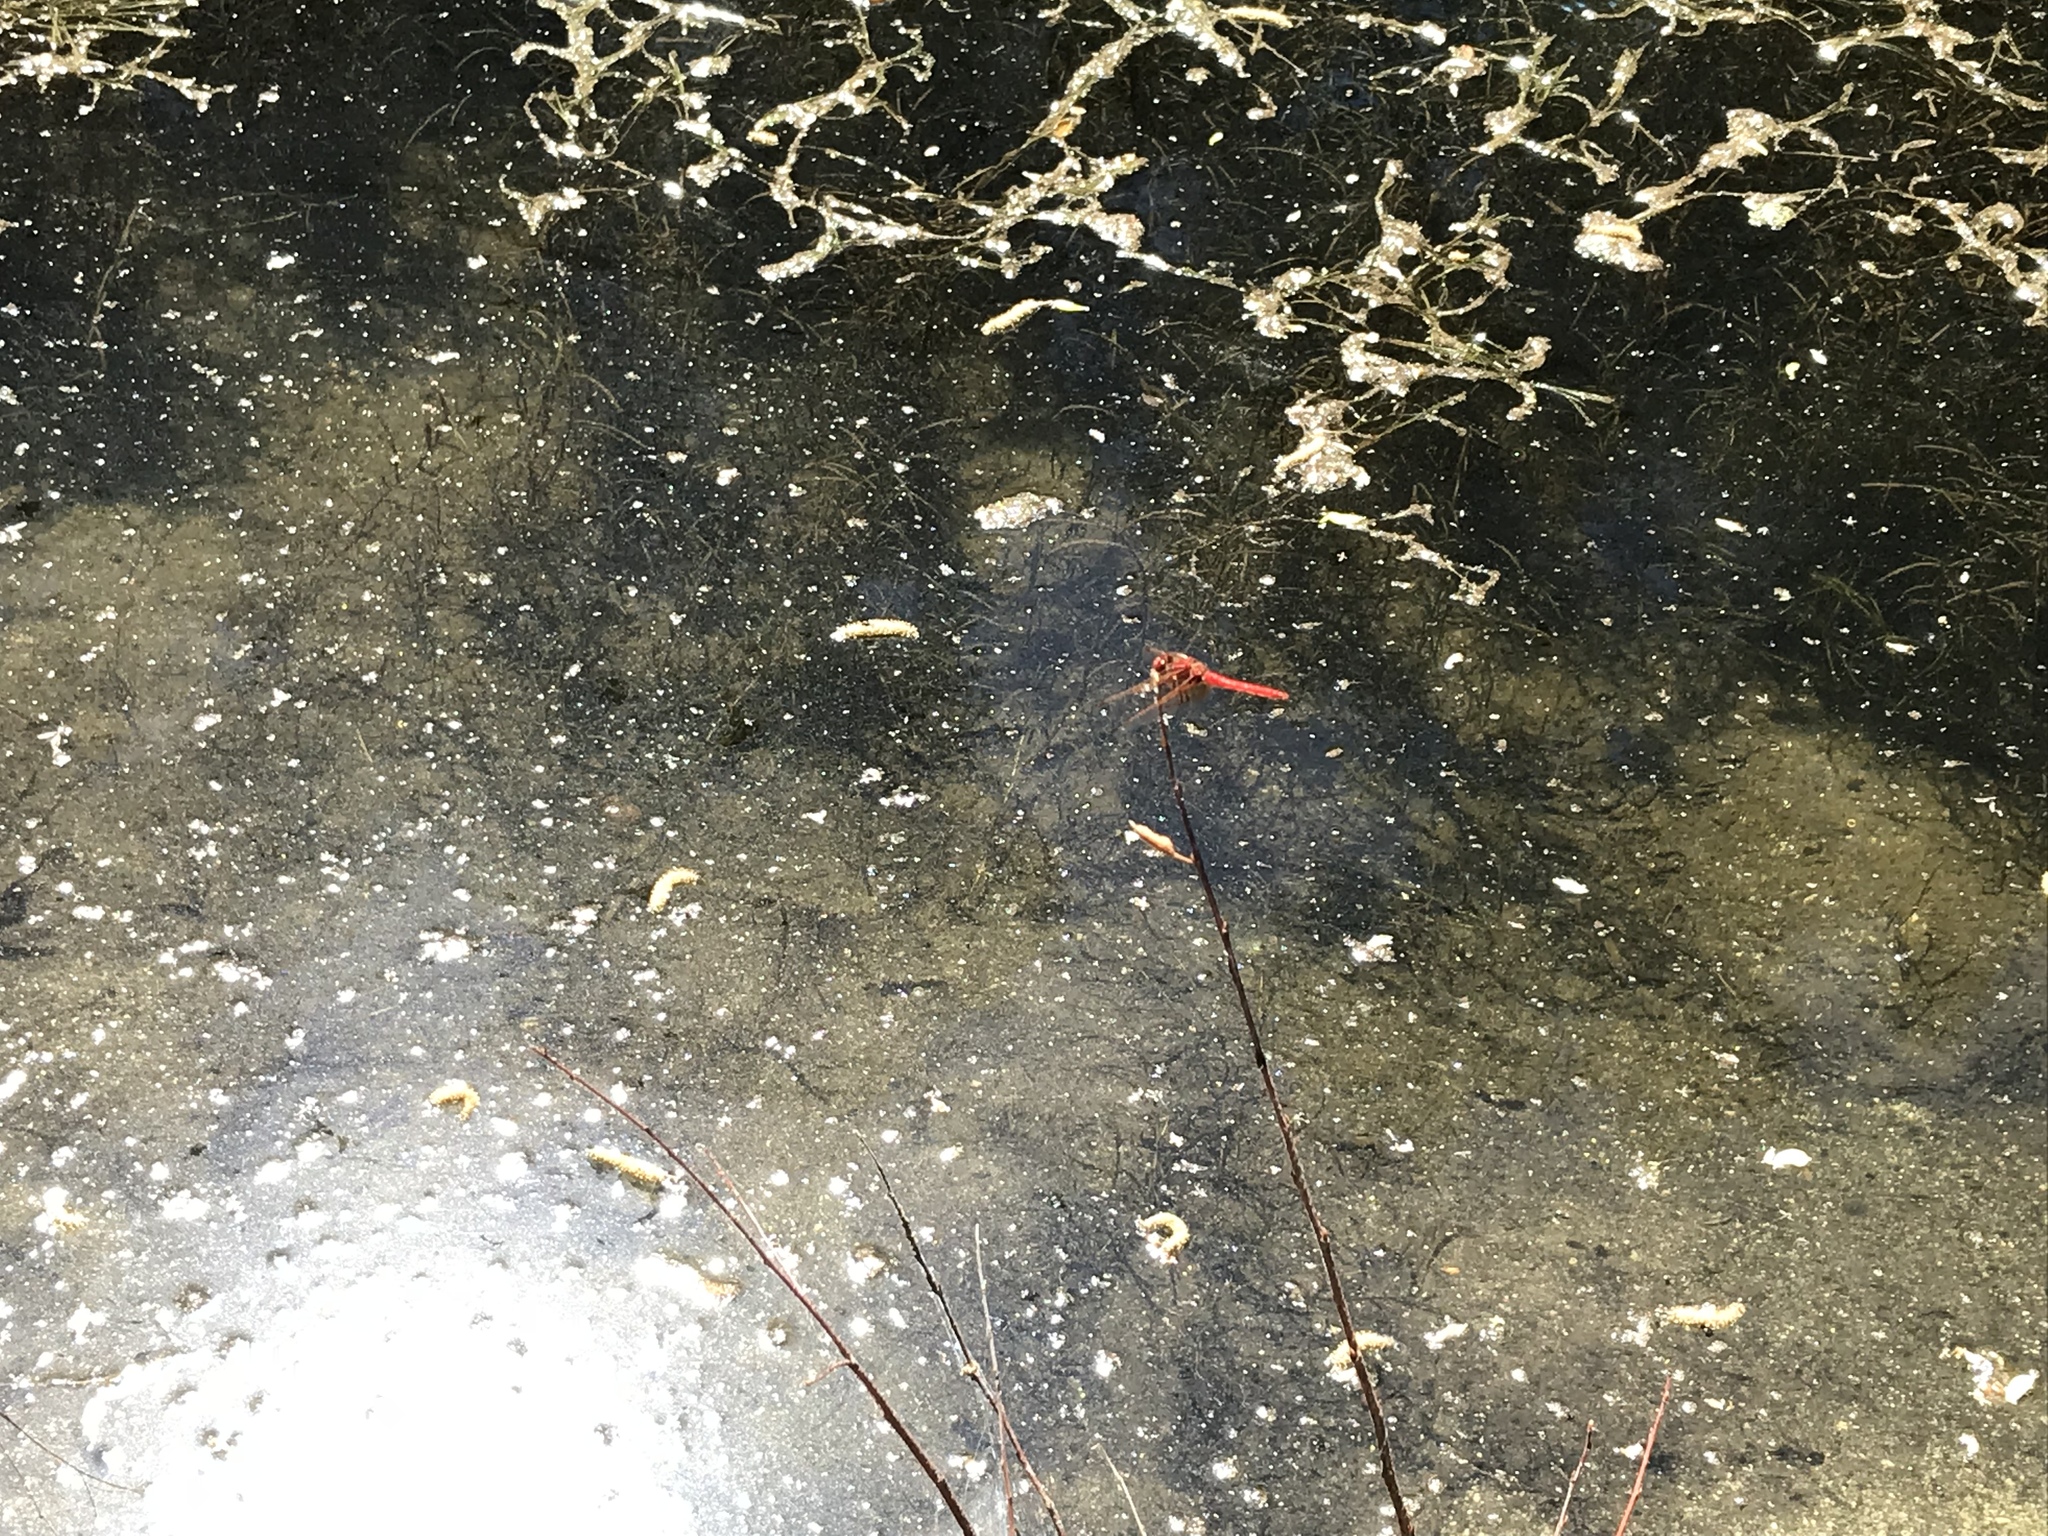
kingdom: Animalia
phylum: Arthropoda
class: Insecta
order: Odonata
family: Libellulidae
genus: Sympetrum
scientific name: Sympetrum illotum
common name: Cardinal meadowhawk
